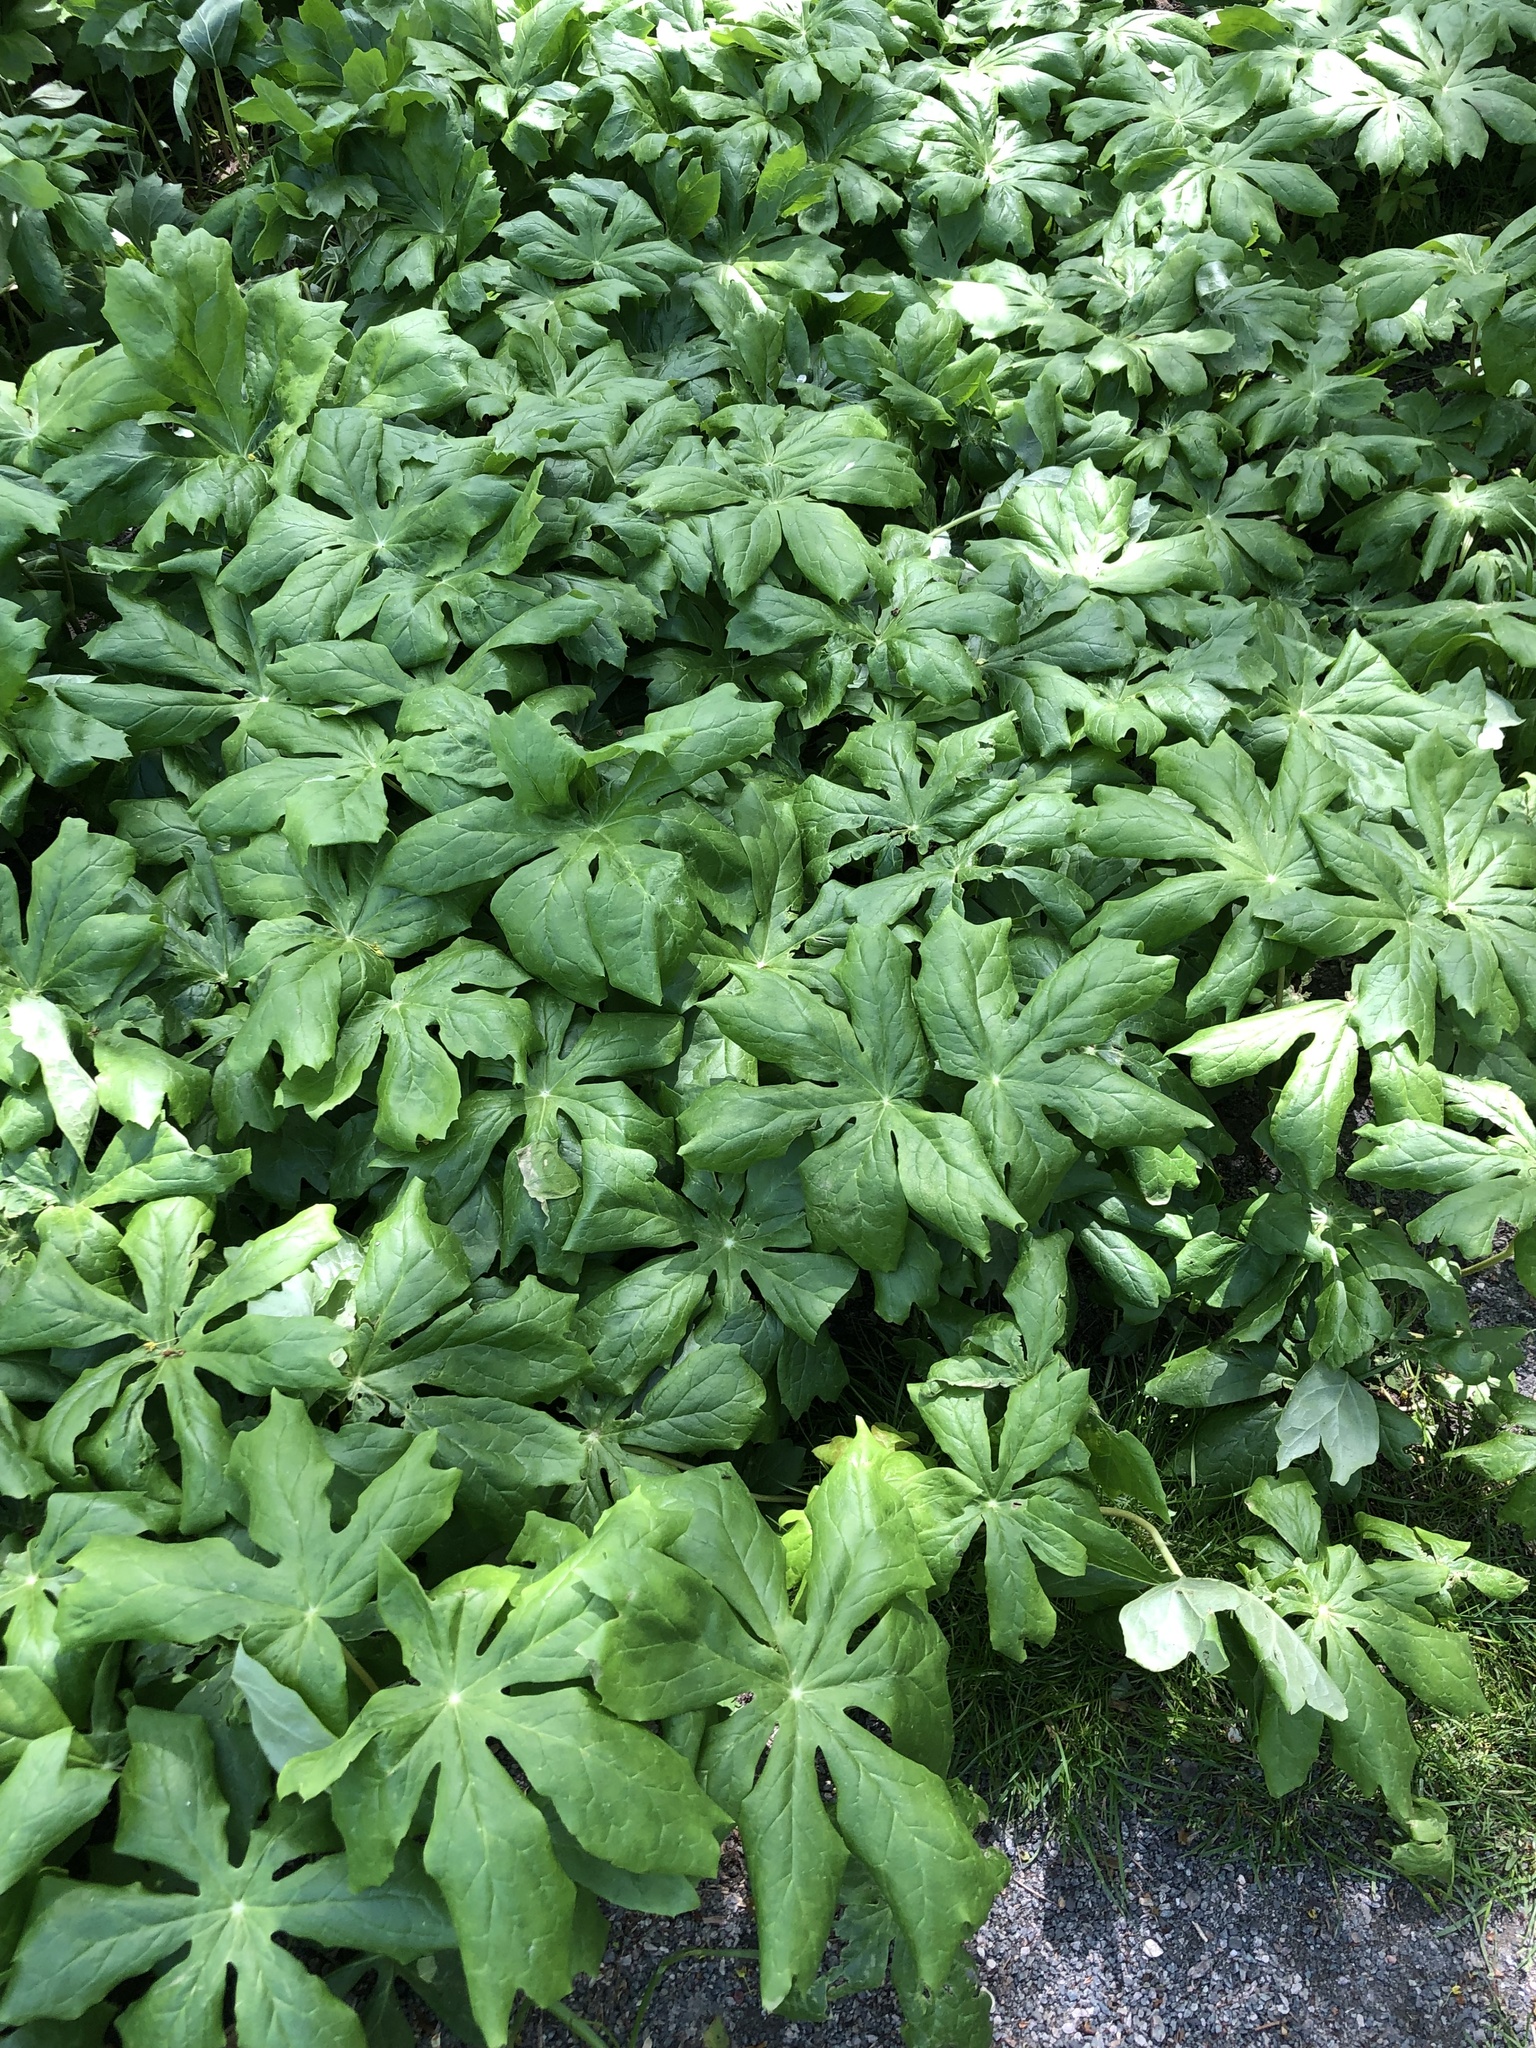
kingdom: Plantae
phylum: Tracheophyta
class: Magnoliopsida
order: Ranunculales
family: Berberidaceae
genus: Podophyllum
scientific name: Podophyllum peltatum
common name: Wild mandrake
